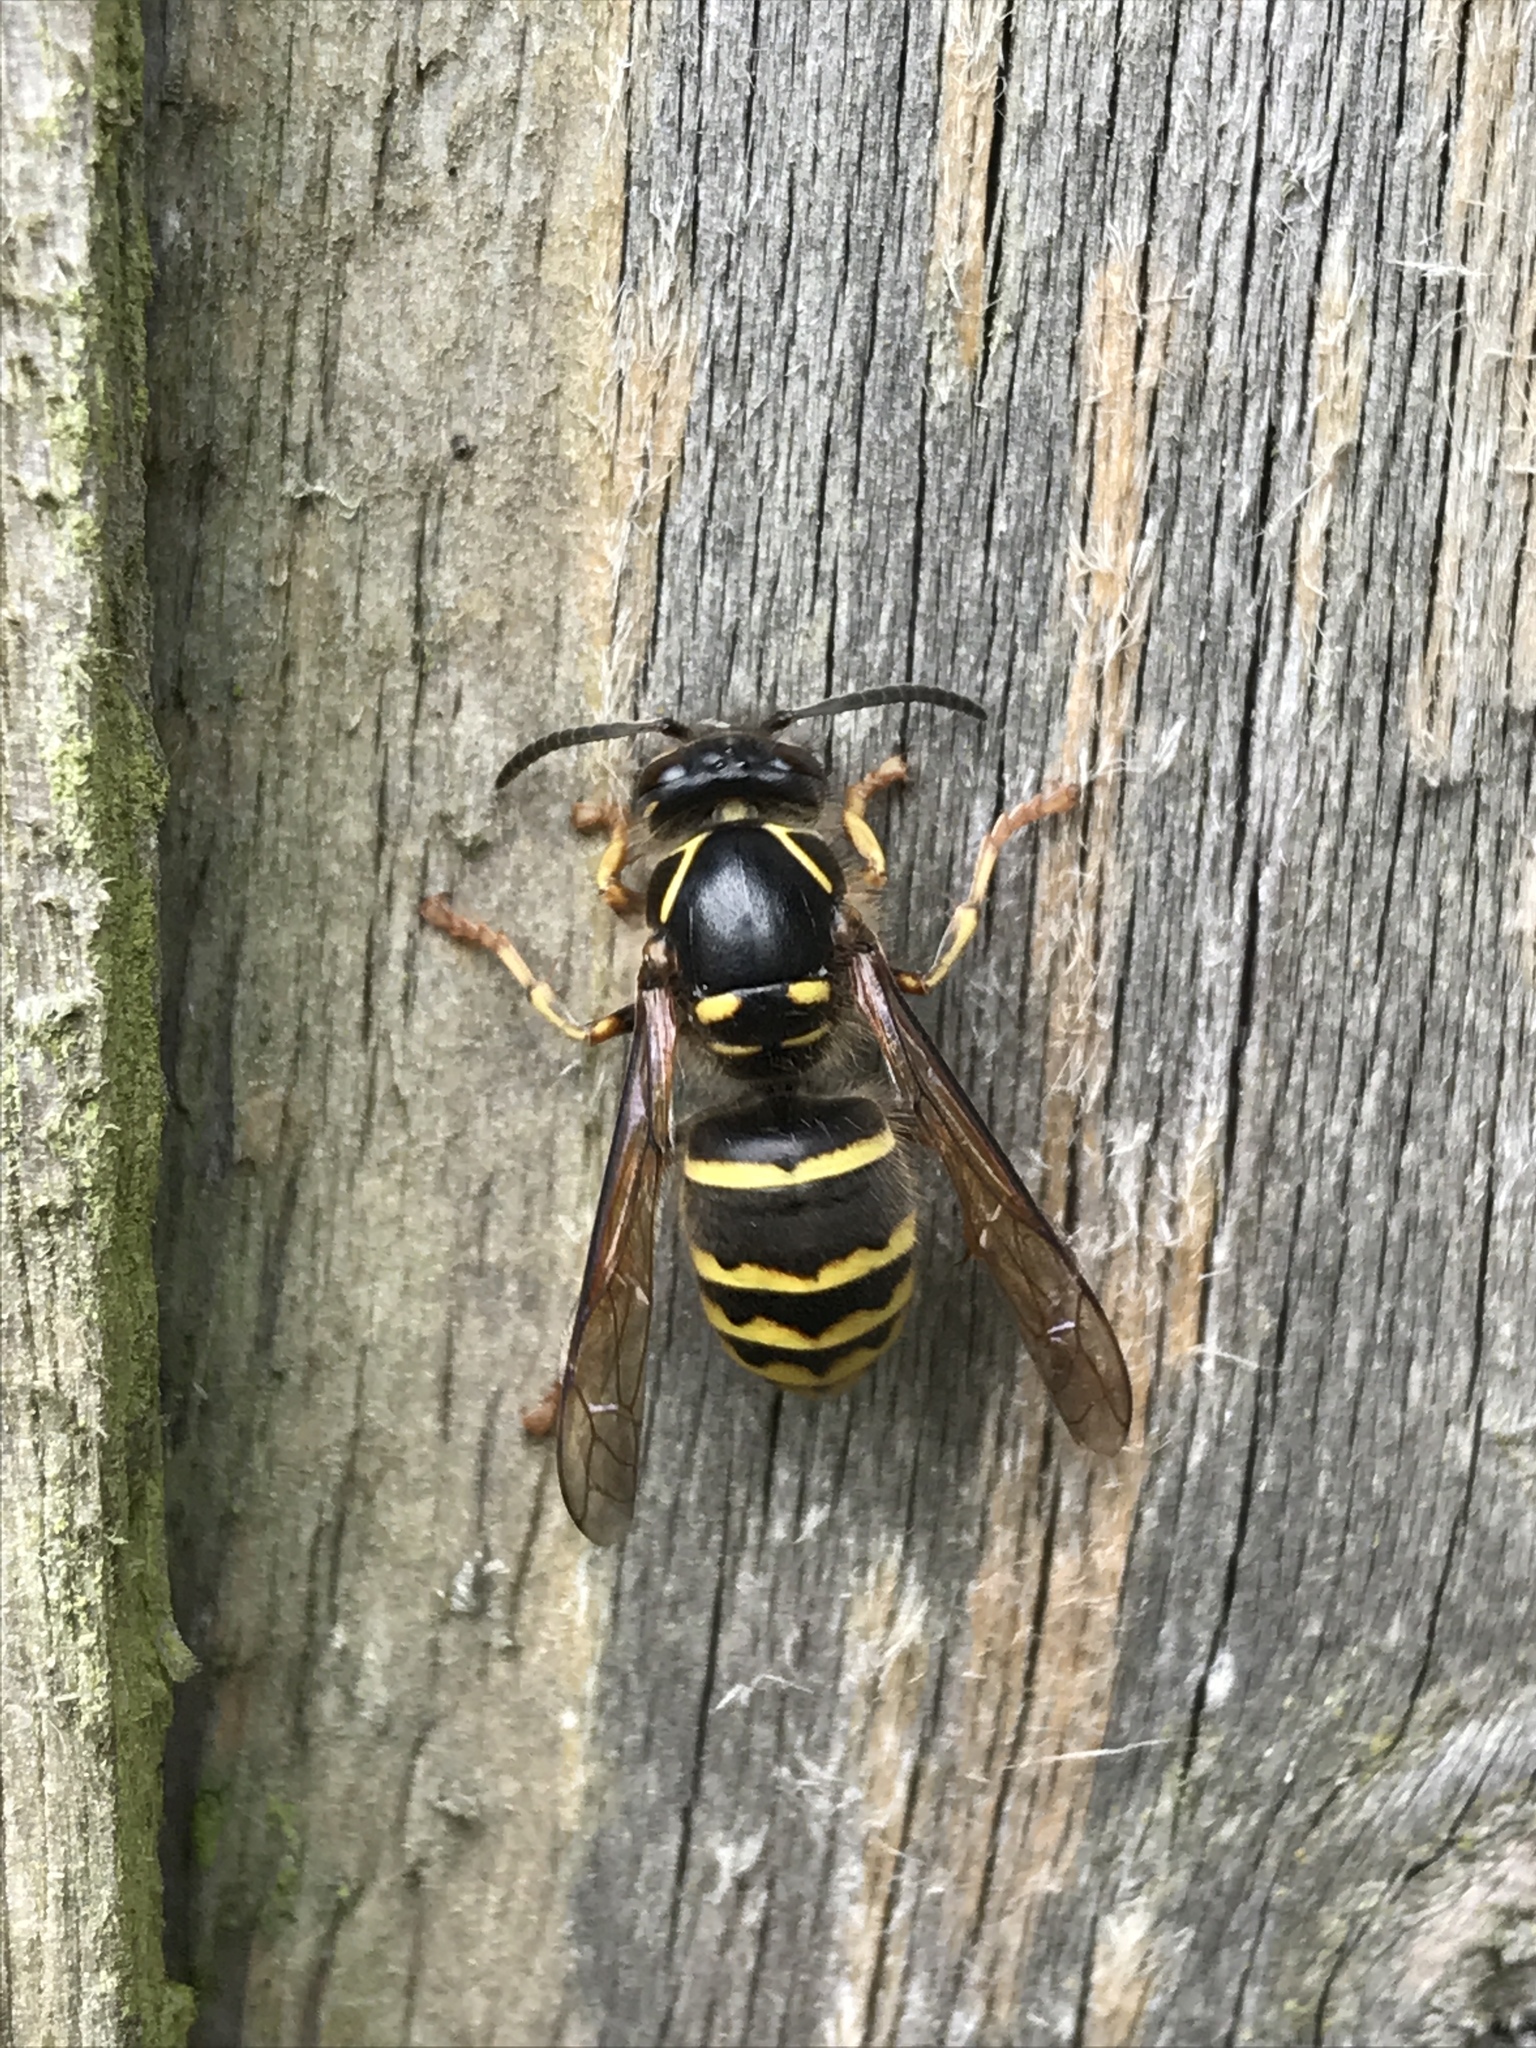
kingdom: Animalia
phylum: Arthropoda
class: Insecta
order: Hymenoptera
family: Vespidae
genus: Dolichovespula
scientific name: Dolichovespula media
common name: Median wasp
